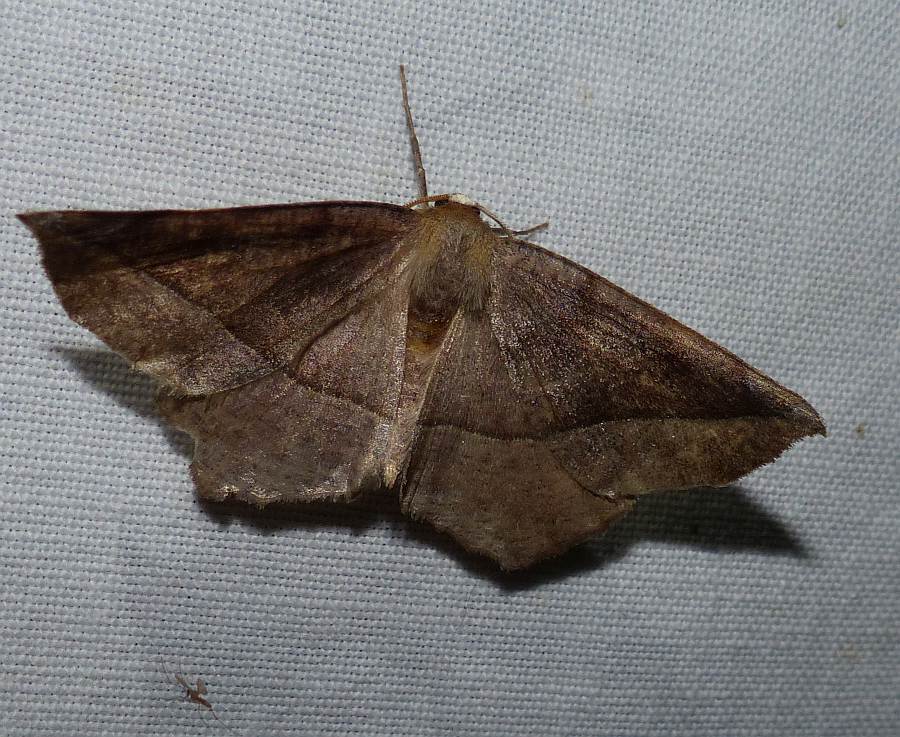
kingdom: Animalia
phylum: Arthropoda
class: Insecta
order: Lepidoptera
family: Geometridae
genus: Eutrapela
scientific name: Eutrapela clemataria
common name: Curved-toothed geometer
